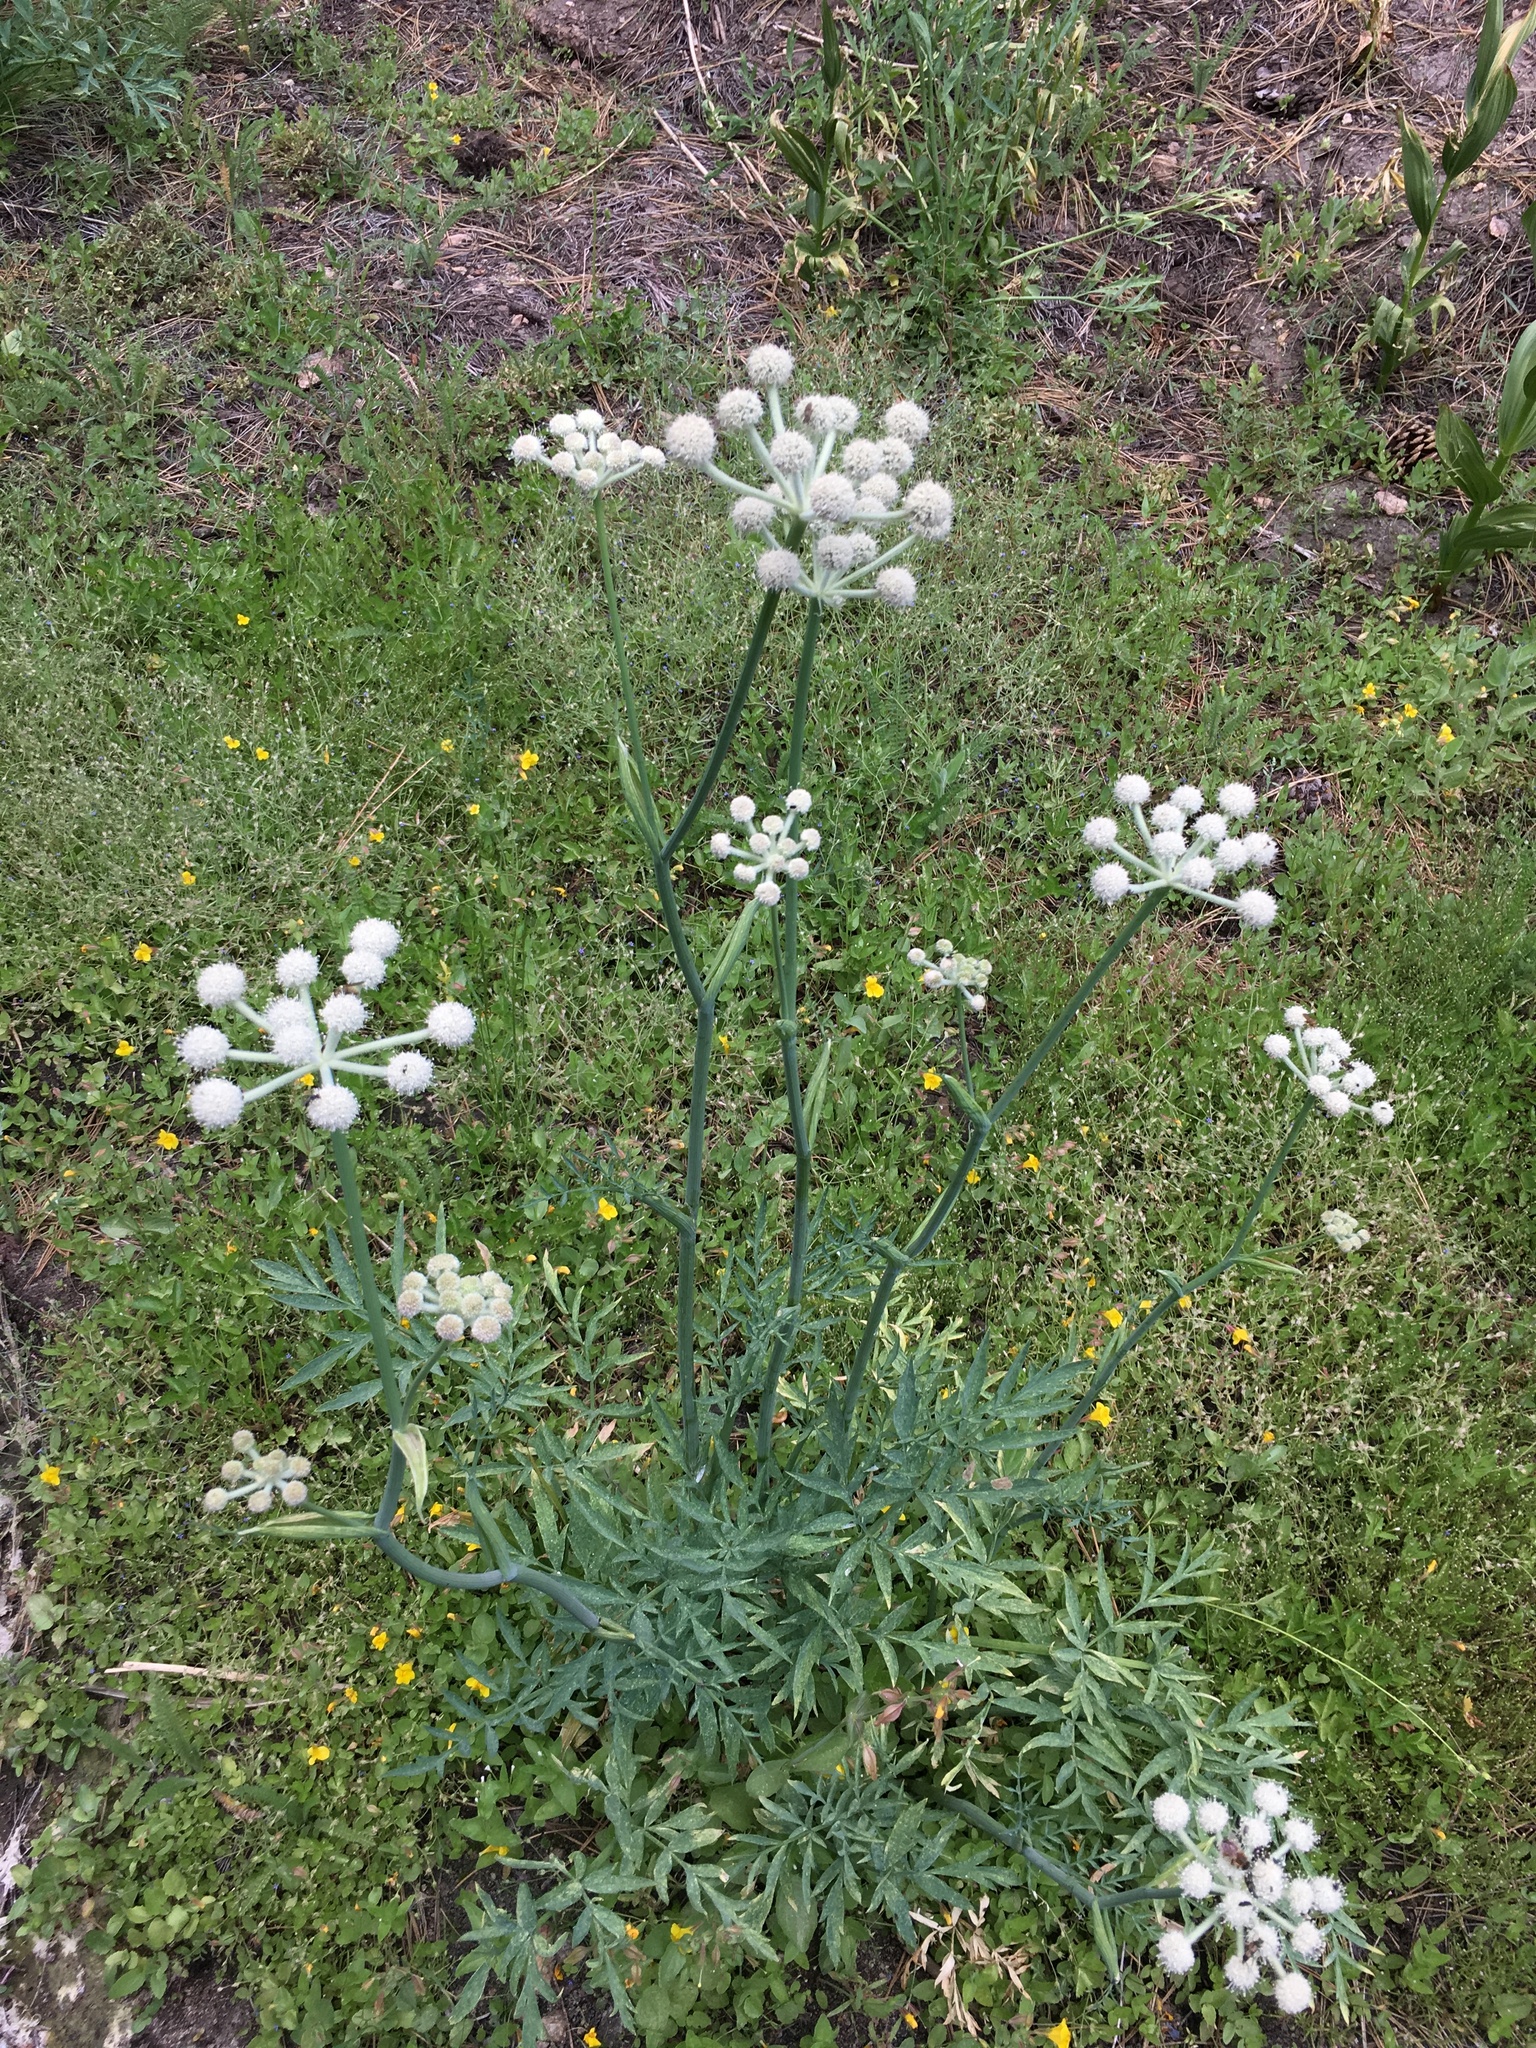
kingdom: Plantae
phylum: Tracheophyta
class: Magnoliopsida
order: Apiales
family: Apiaceae
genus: Angelica
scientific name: Angelica capitellata
